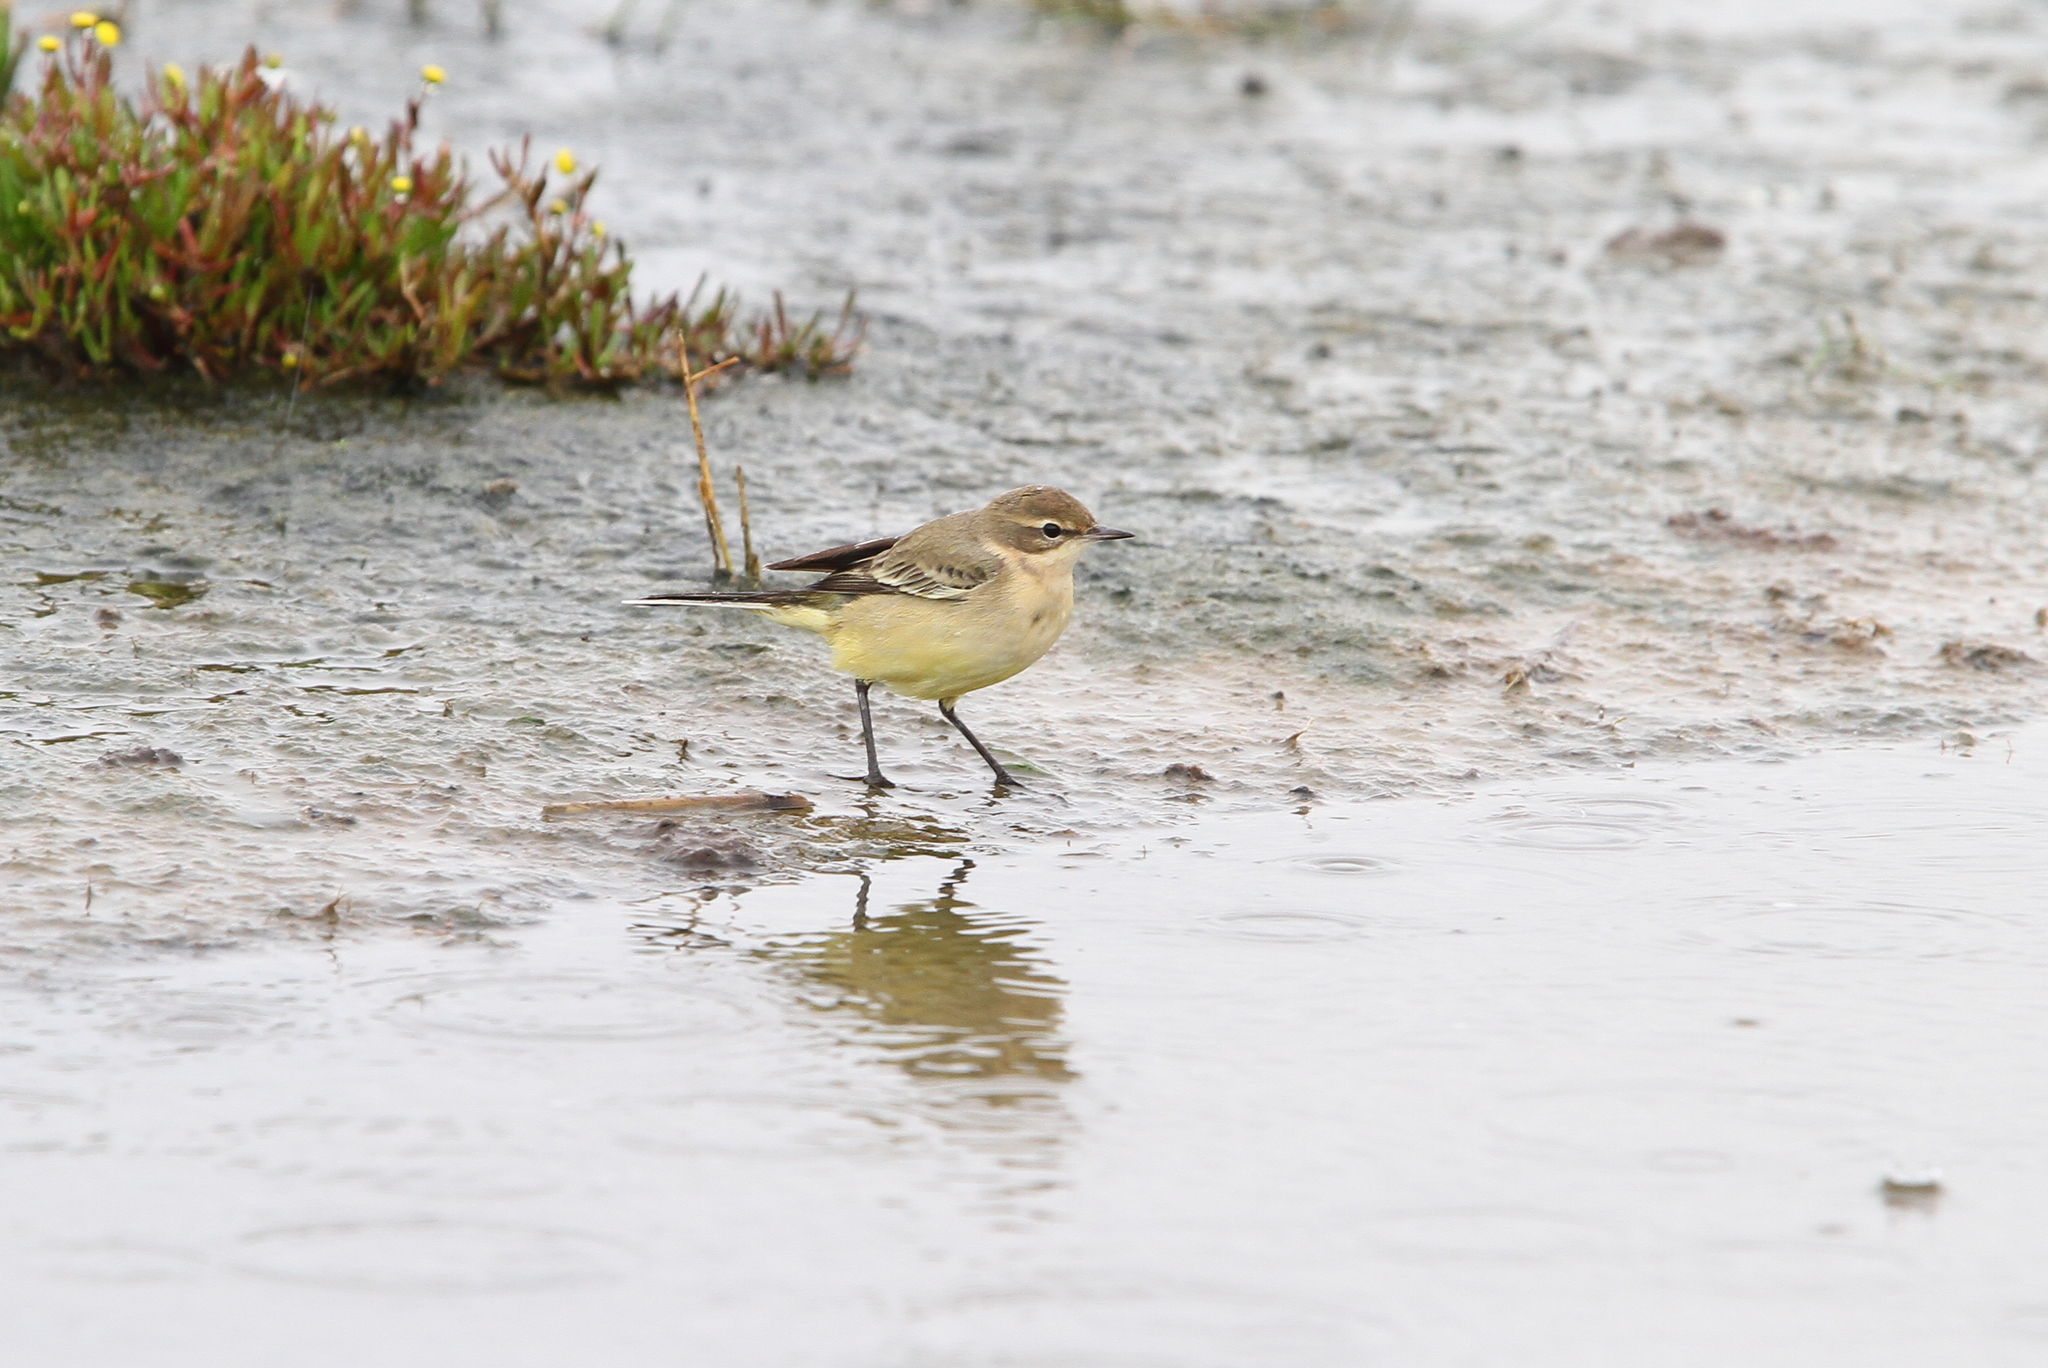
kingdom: Animalia
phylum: Chordata
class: Aves
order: Passeriformes
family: Motacillidae
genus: Motacilla
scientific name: Motacilla flava
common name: Western yellow wagtail
